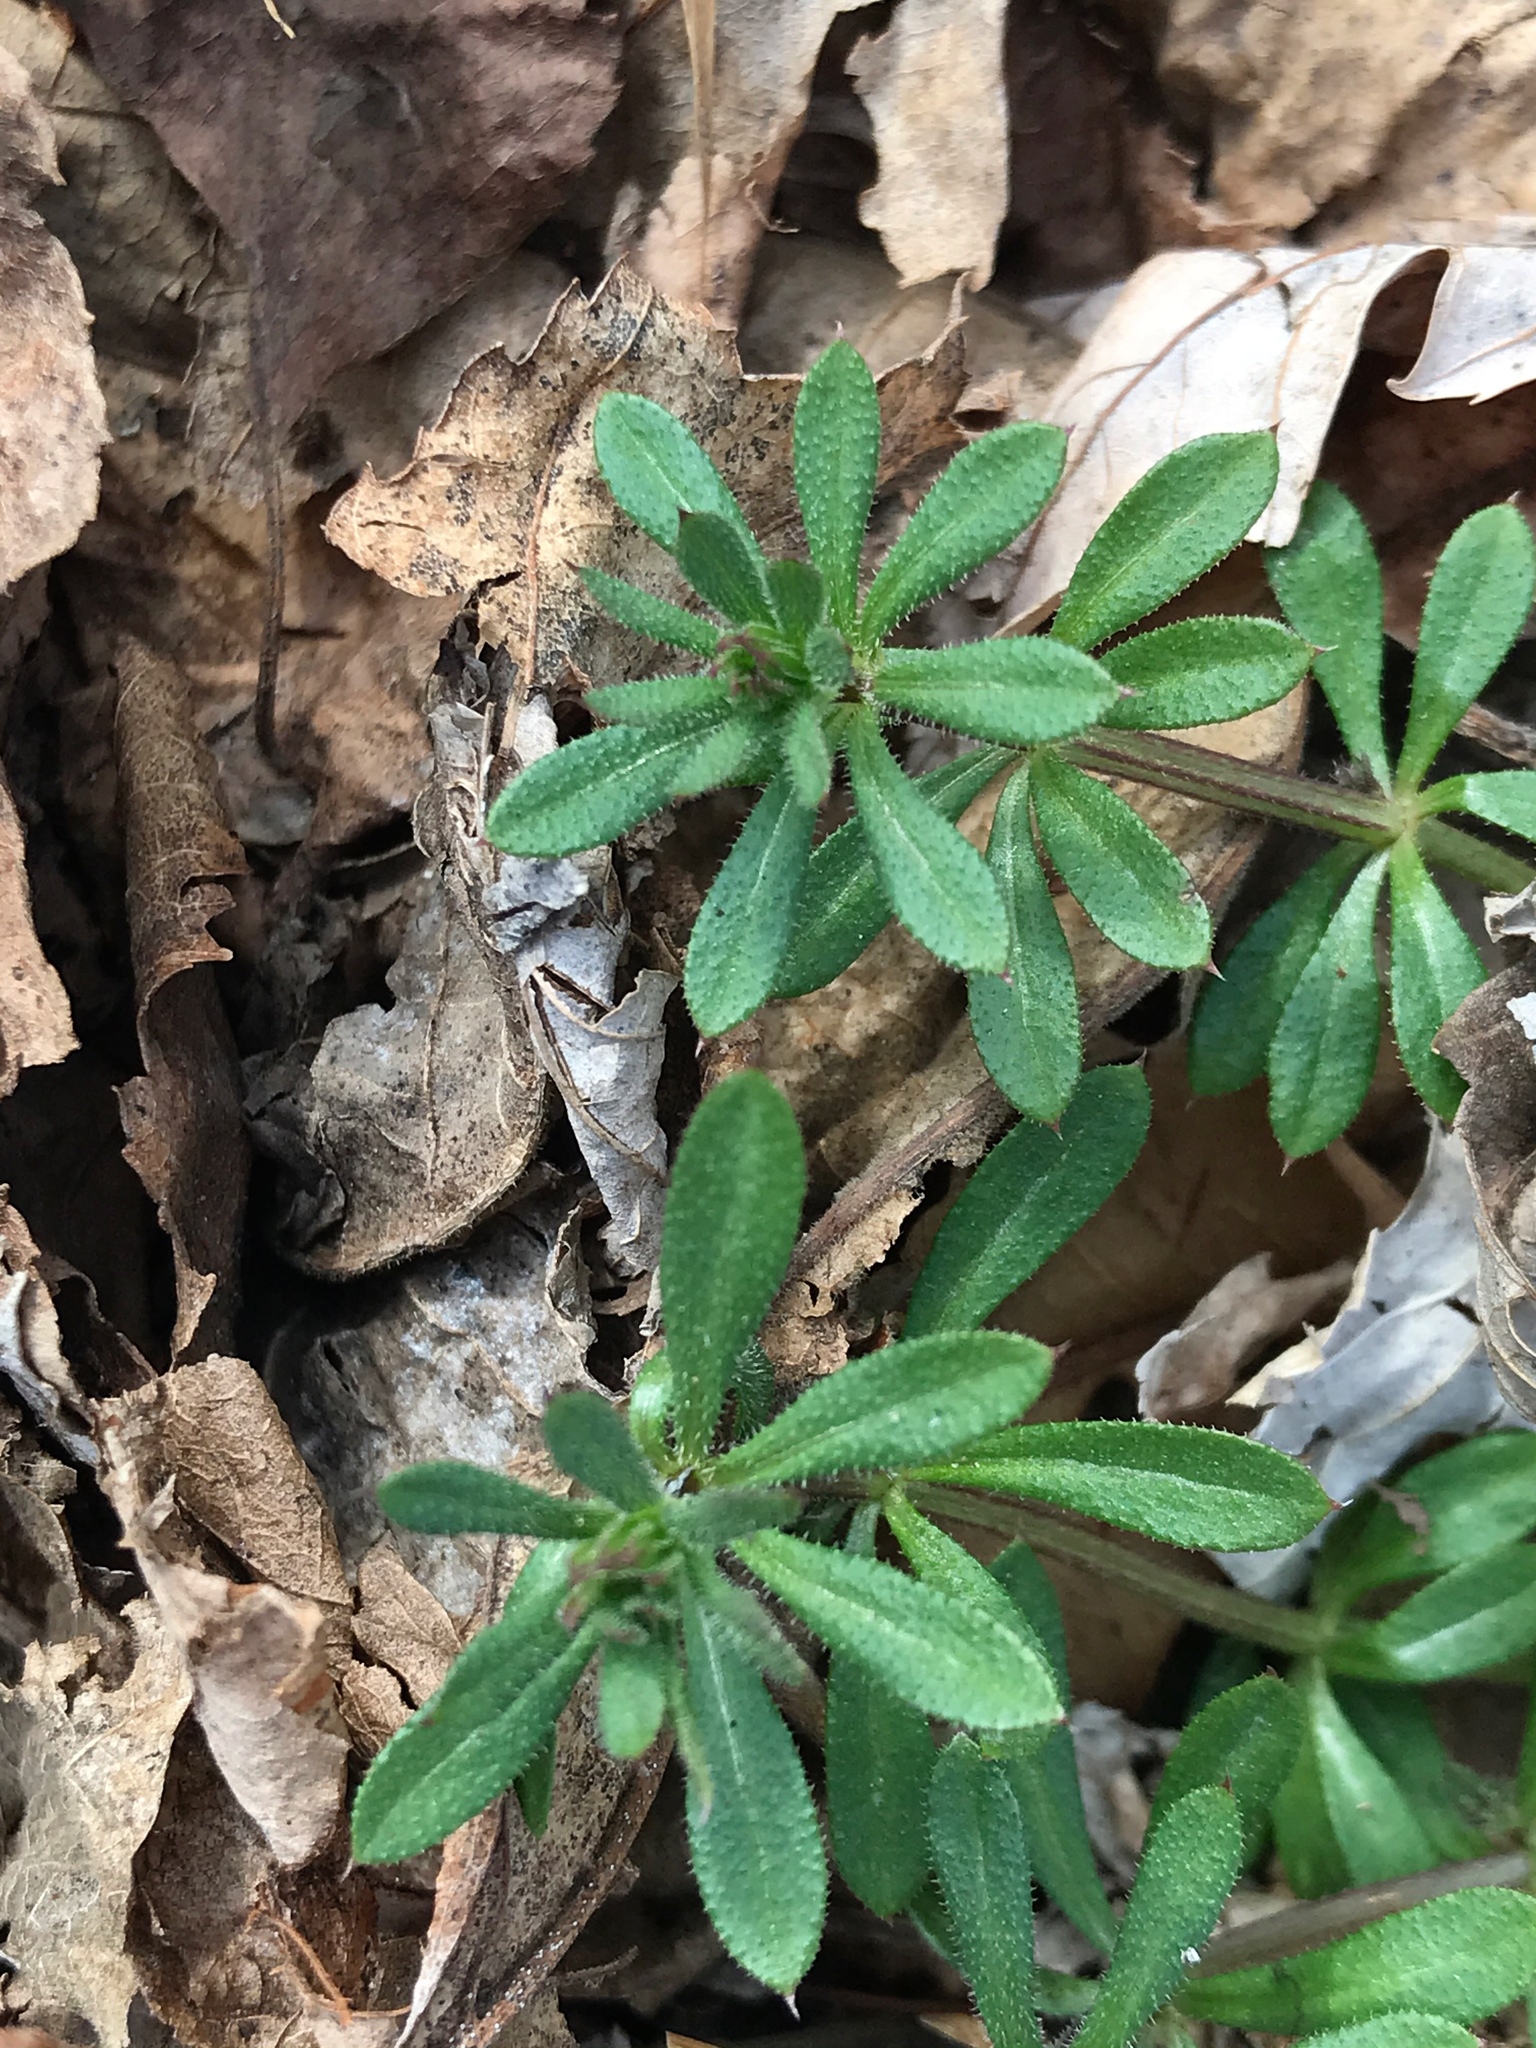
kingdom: Plantae
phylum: Tracheophyta
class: Magnoliopsida
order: Gentianales
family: Rubiaceae
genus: Galium
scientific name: Galium aparine
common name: Cleavers
